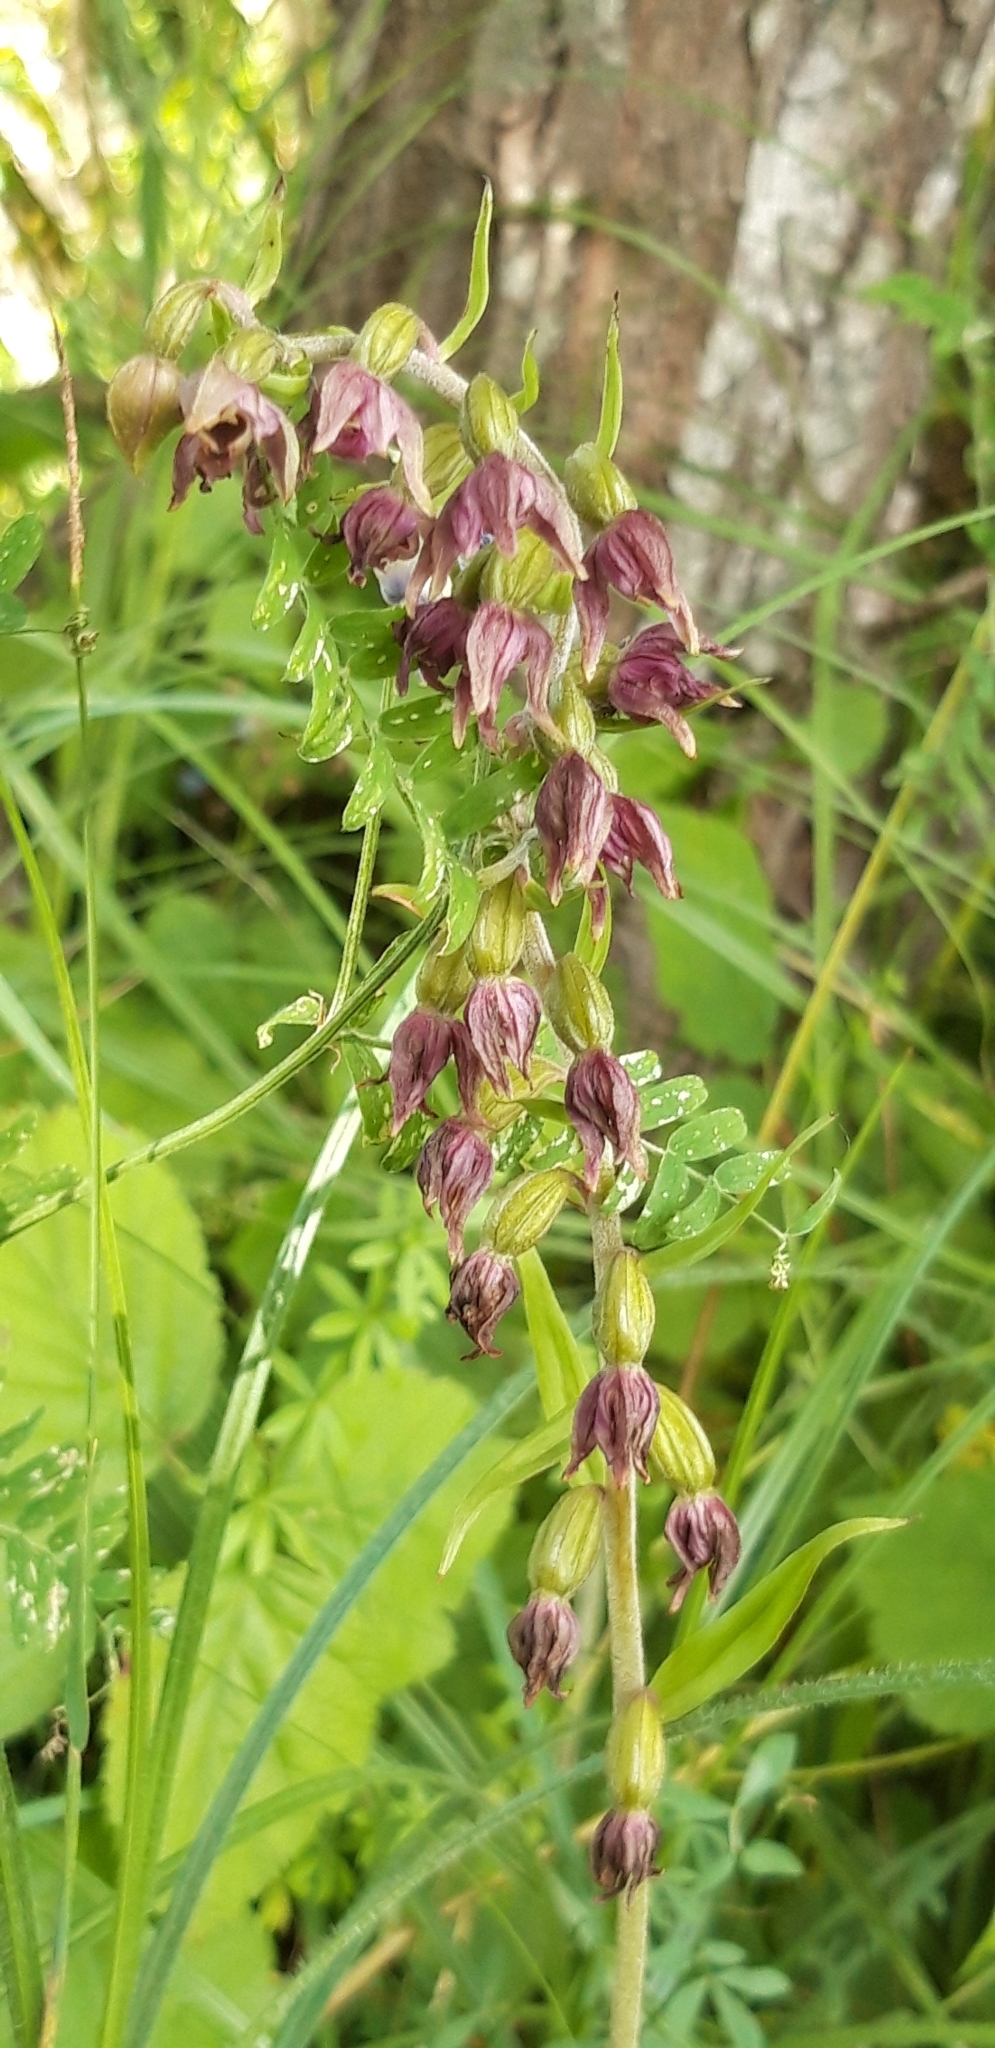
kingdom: Plantae
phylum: Tracheophyta
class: Liliopsida
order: Asparagales
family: Orchidaceae
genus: Epipactis
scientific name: Epipactis atrorubens
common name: Dark-red helleborine
